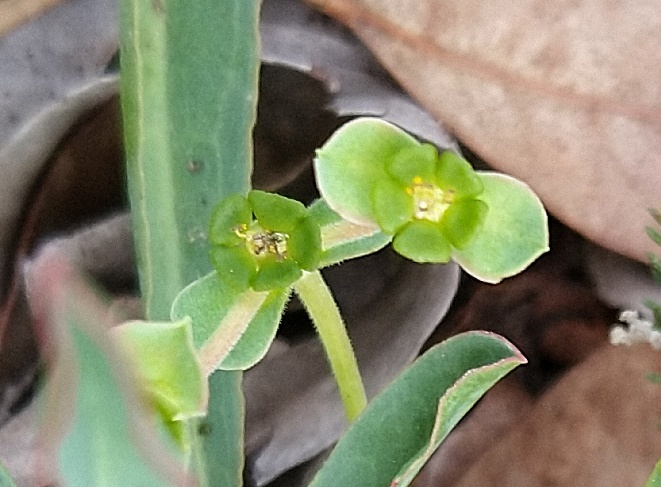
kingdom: Plantae
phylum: Tracheophyta
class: Magnoliopsida
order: Malpighiales
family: Euphorbiaceae
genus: Euphorbia
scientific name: Euphorbia silenifolia
